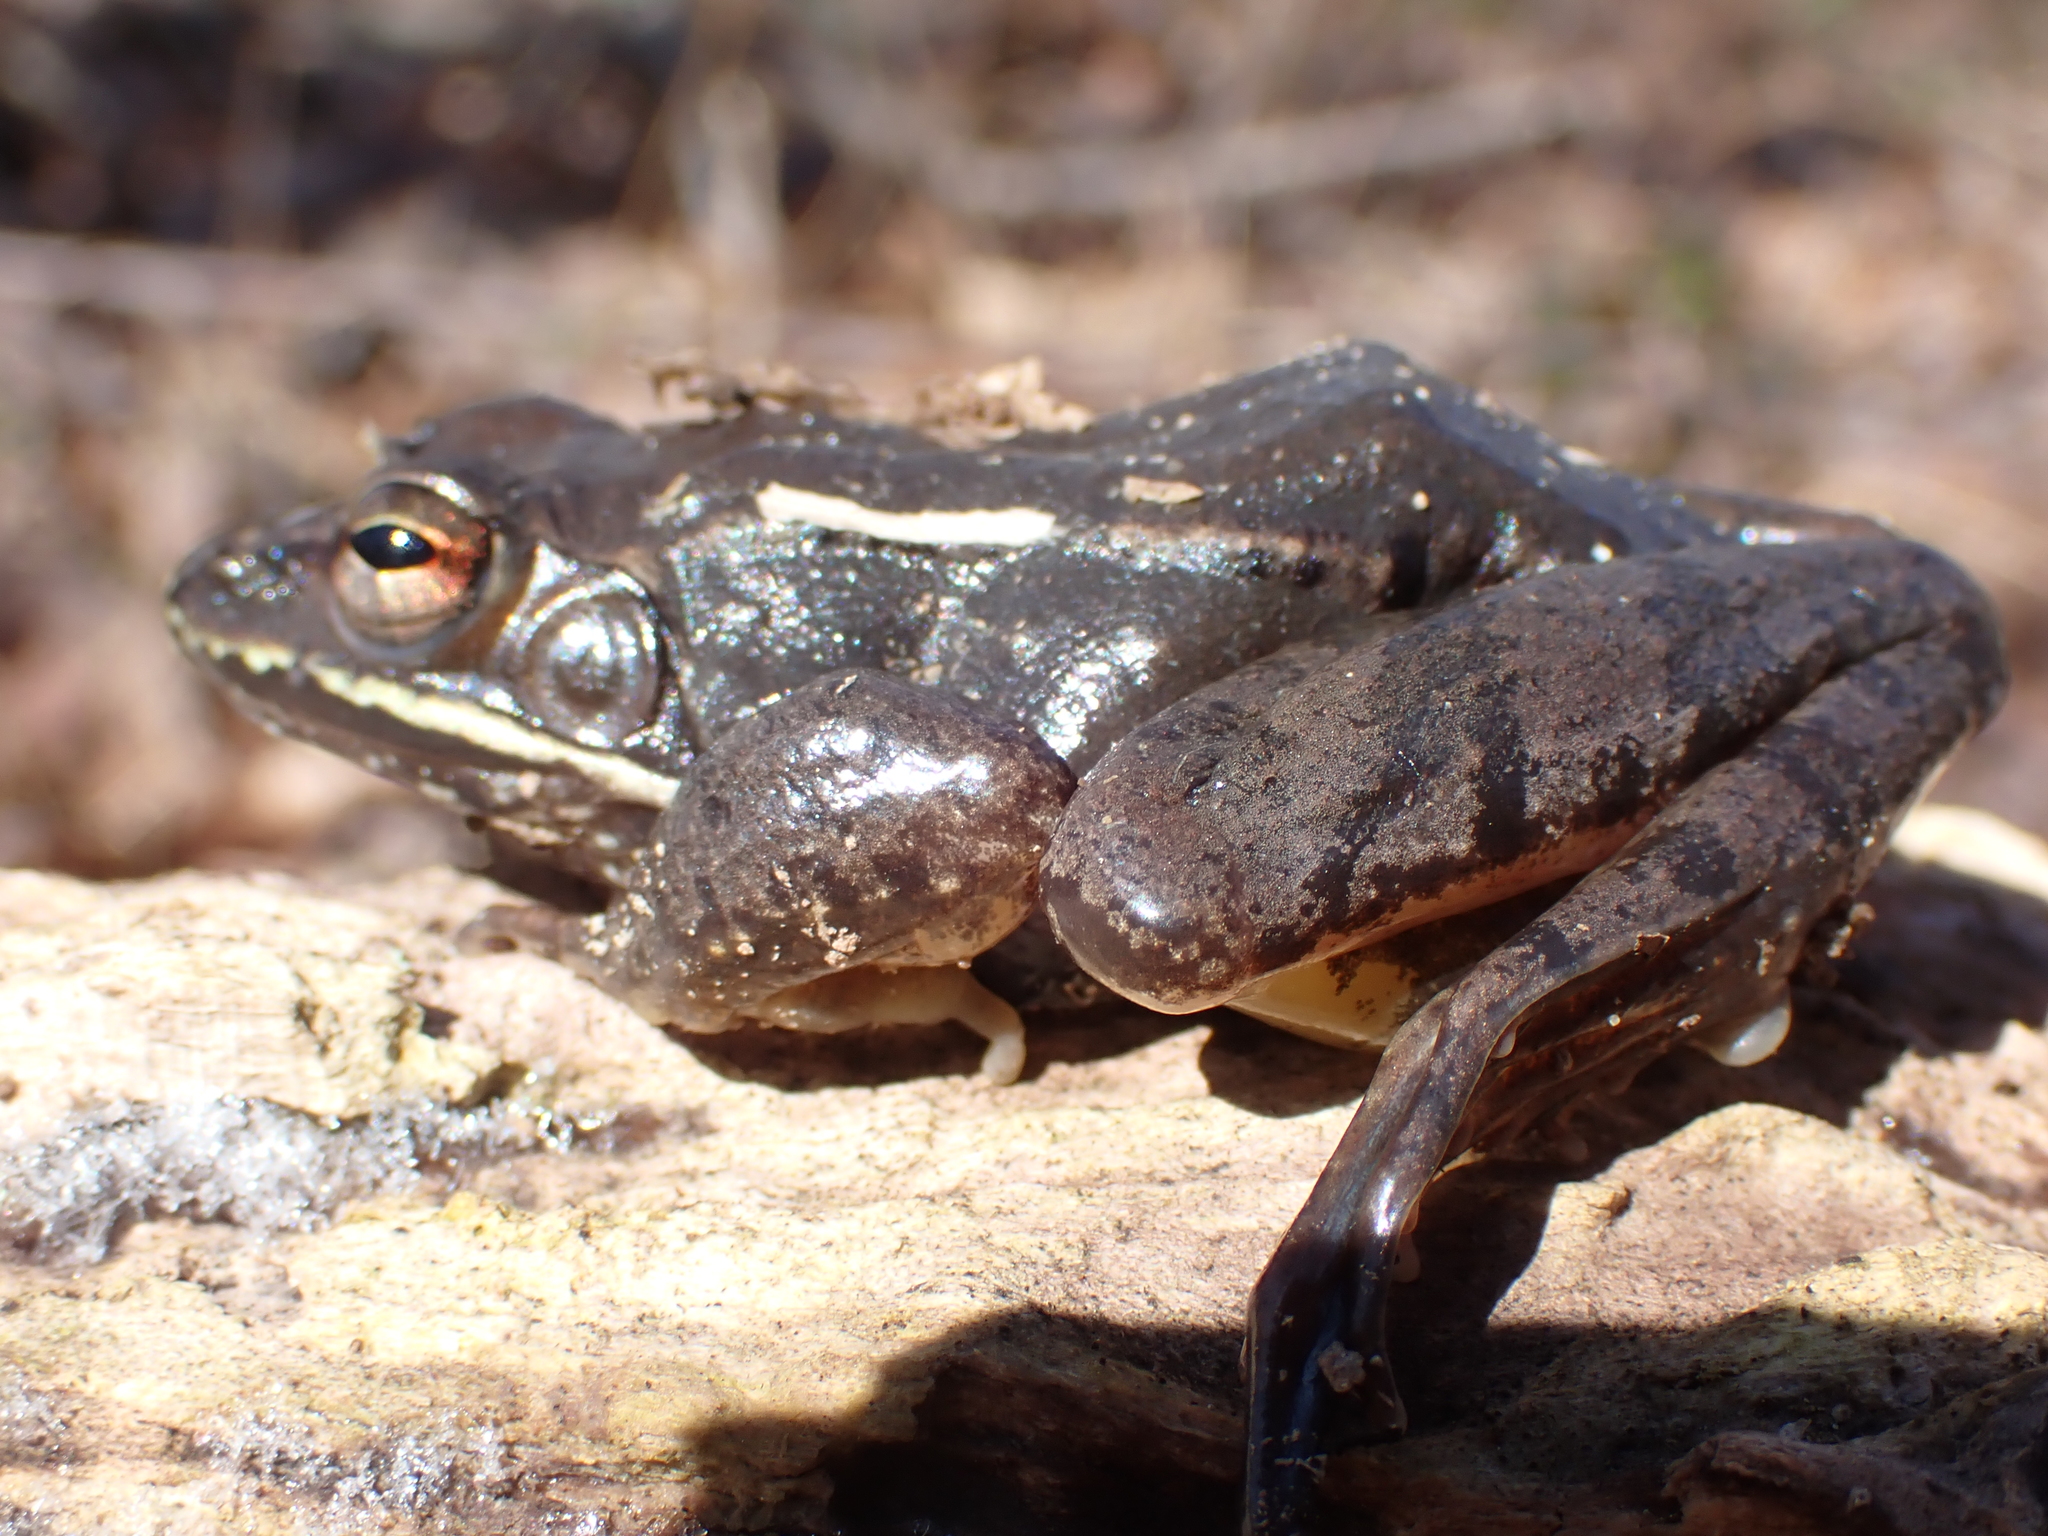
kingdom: Animalia
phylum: Chordata
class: Amphibia
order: Anura
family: Ranidae
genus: Lithobates
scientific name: Lithobates sylvaticus
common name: Wood frog
